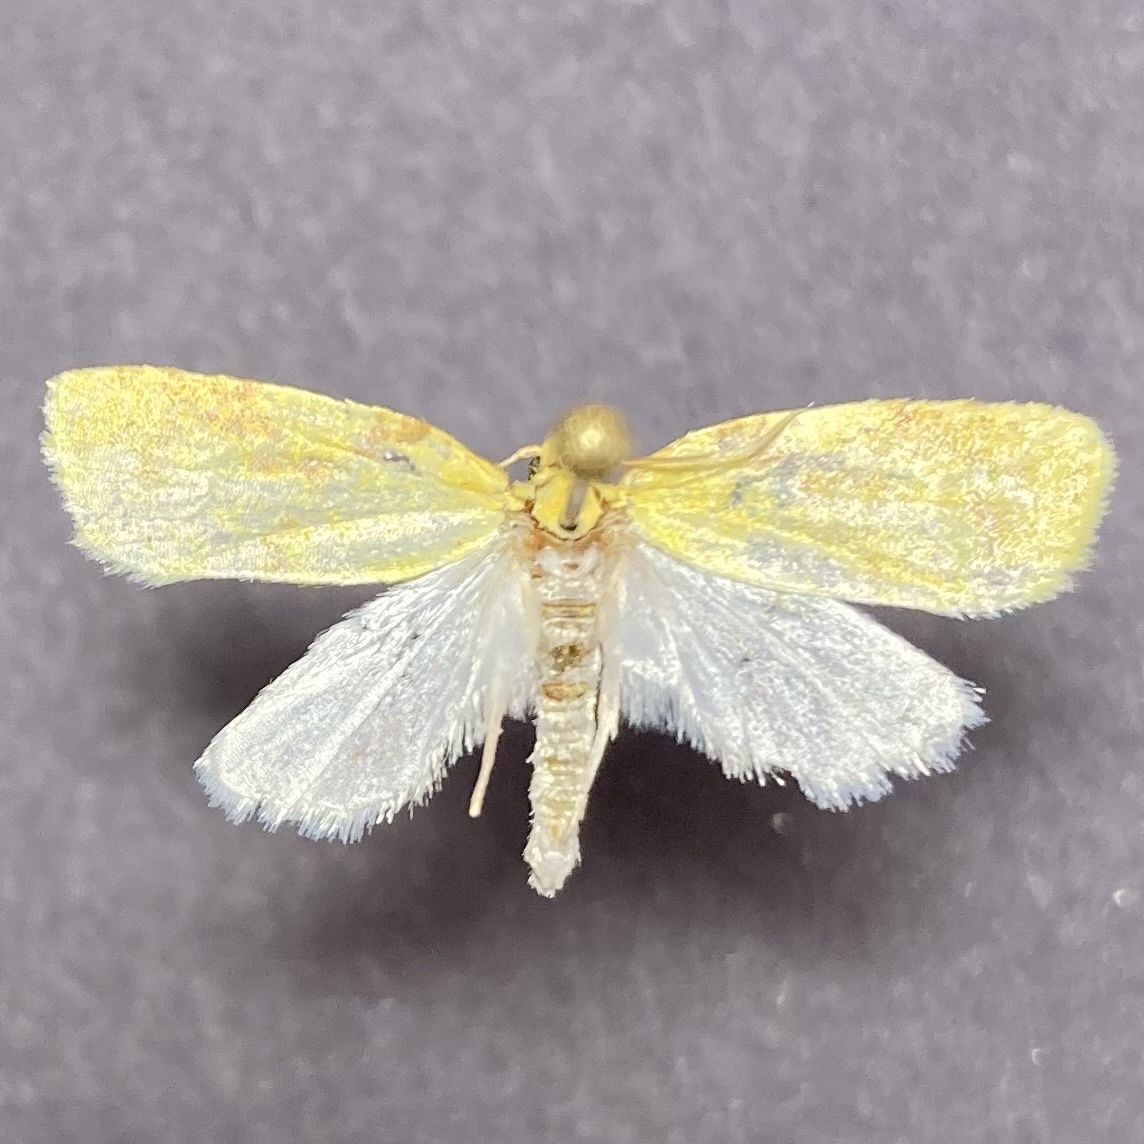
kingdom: Animalia
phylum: Arthropoda
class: Insecta
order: Lepidoptera
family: Tortricidae
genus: Cenopis
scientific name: Cenopis pettitana
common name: Maple-basswood leafroller moth
